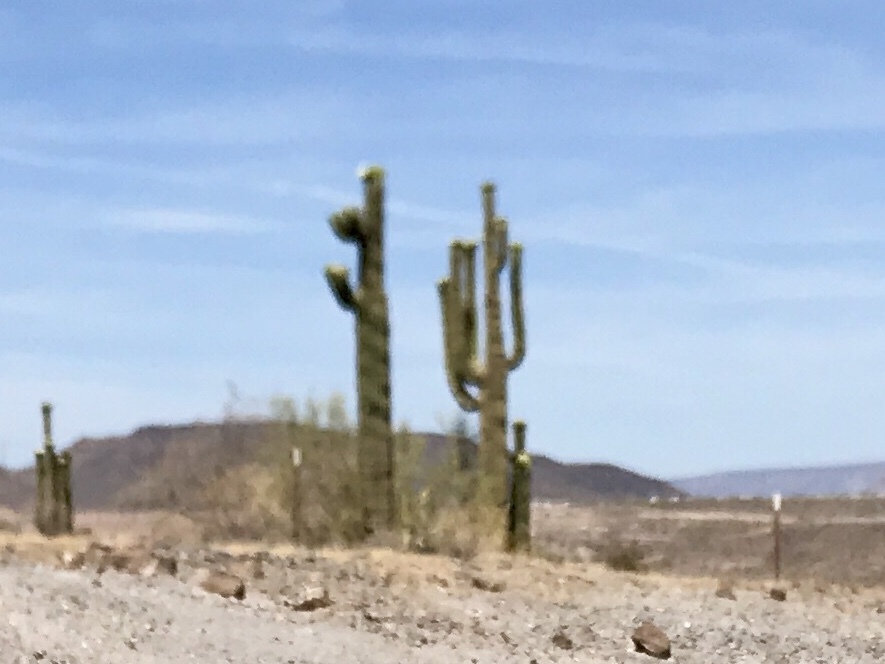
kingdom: Plantae
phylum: Tracheophyta
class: Magnoliopsida
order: Caryophyllales
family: Cactaceae
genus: Carnegiea
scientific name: Carnegiea gigantea
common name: Saguaro
